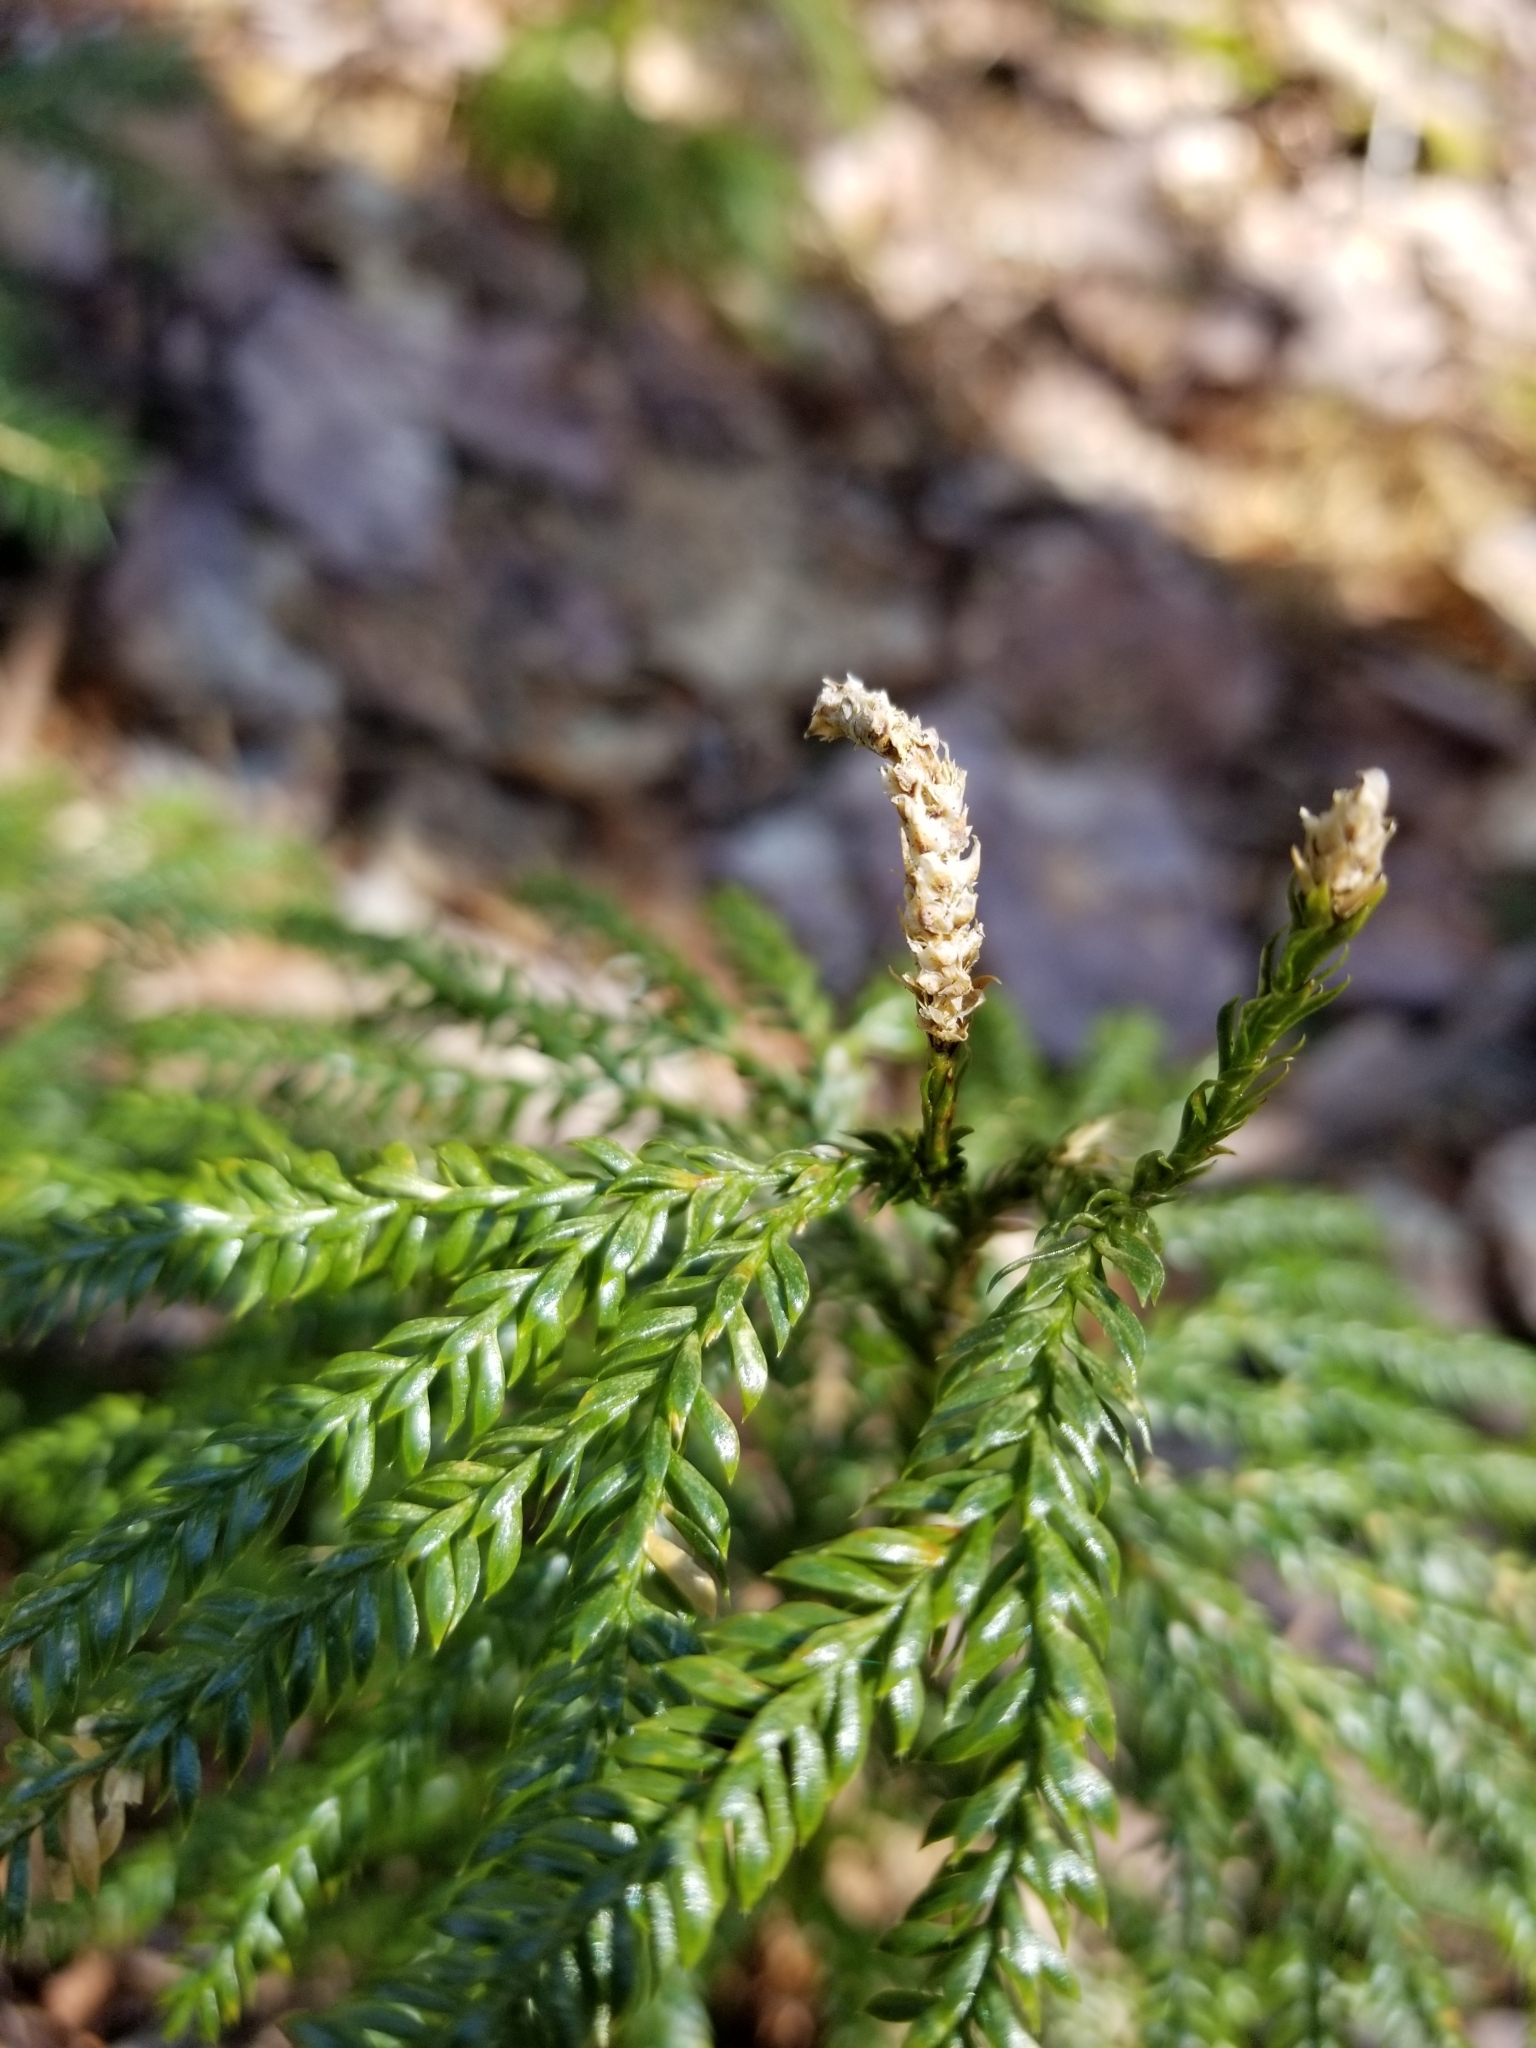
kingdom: Plantae
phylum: Tracheophyta
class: Lycopodiopsida
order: Lycopodiales
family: Lycopodiaceae
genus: Dendrolycopodium
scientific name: Dendrolycopodium obscurum
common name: Common ground-pine
